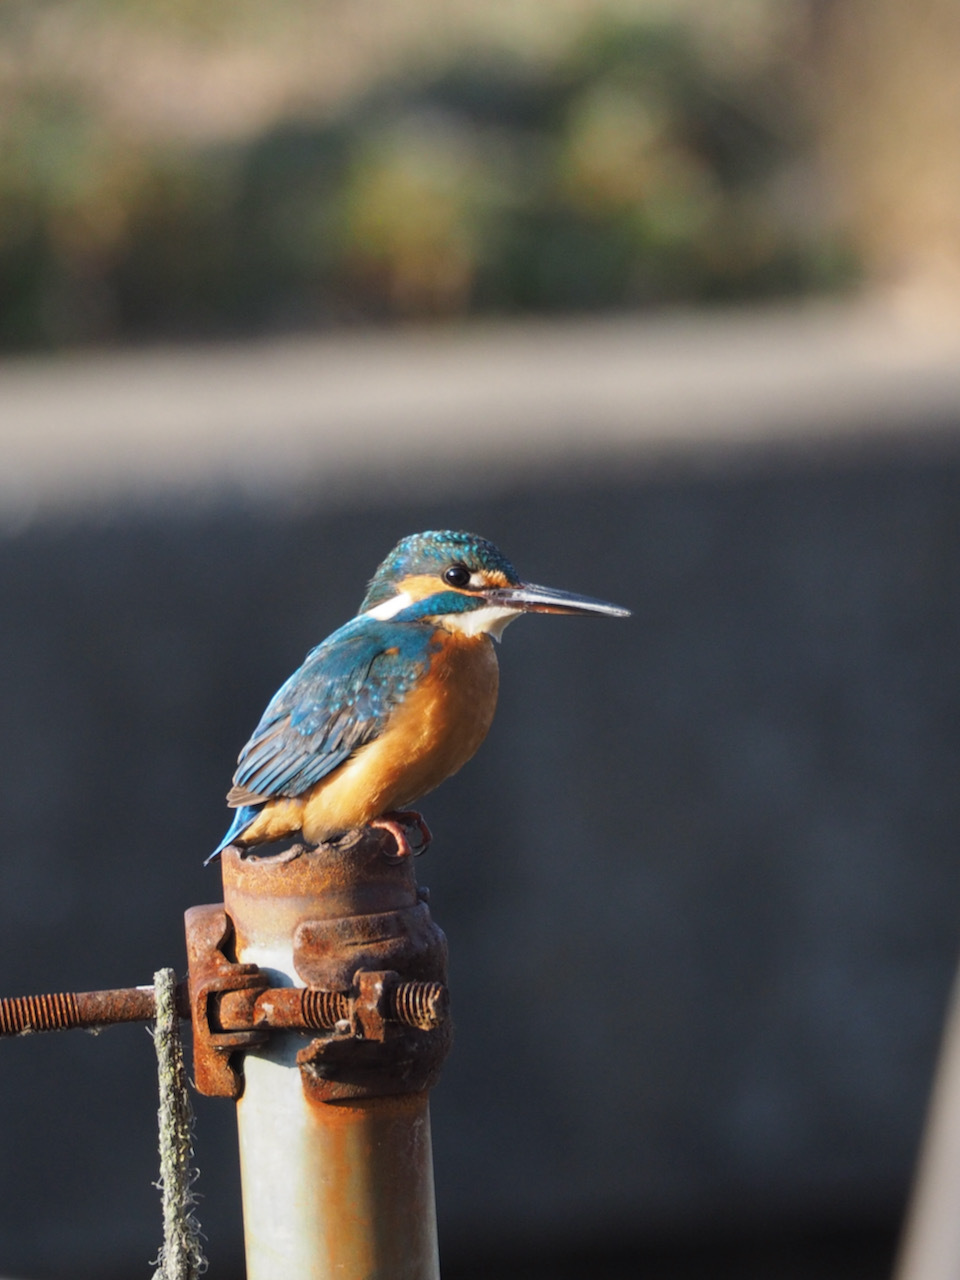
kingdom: Animalia
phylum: Chordata
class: Aves
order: Coraciiformes
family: Alcedinidae
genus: Alcedo
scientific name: Alcedo atthis
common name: Common kingfisher
